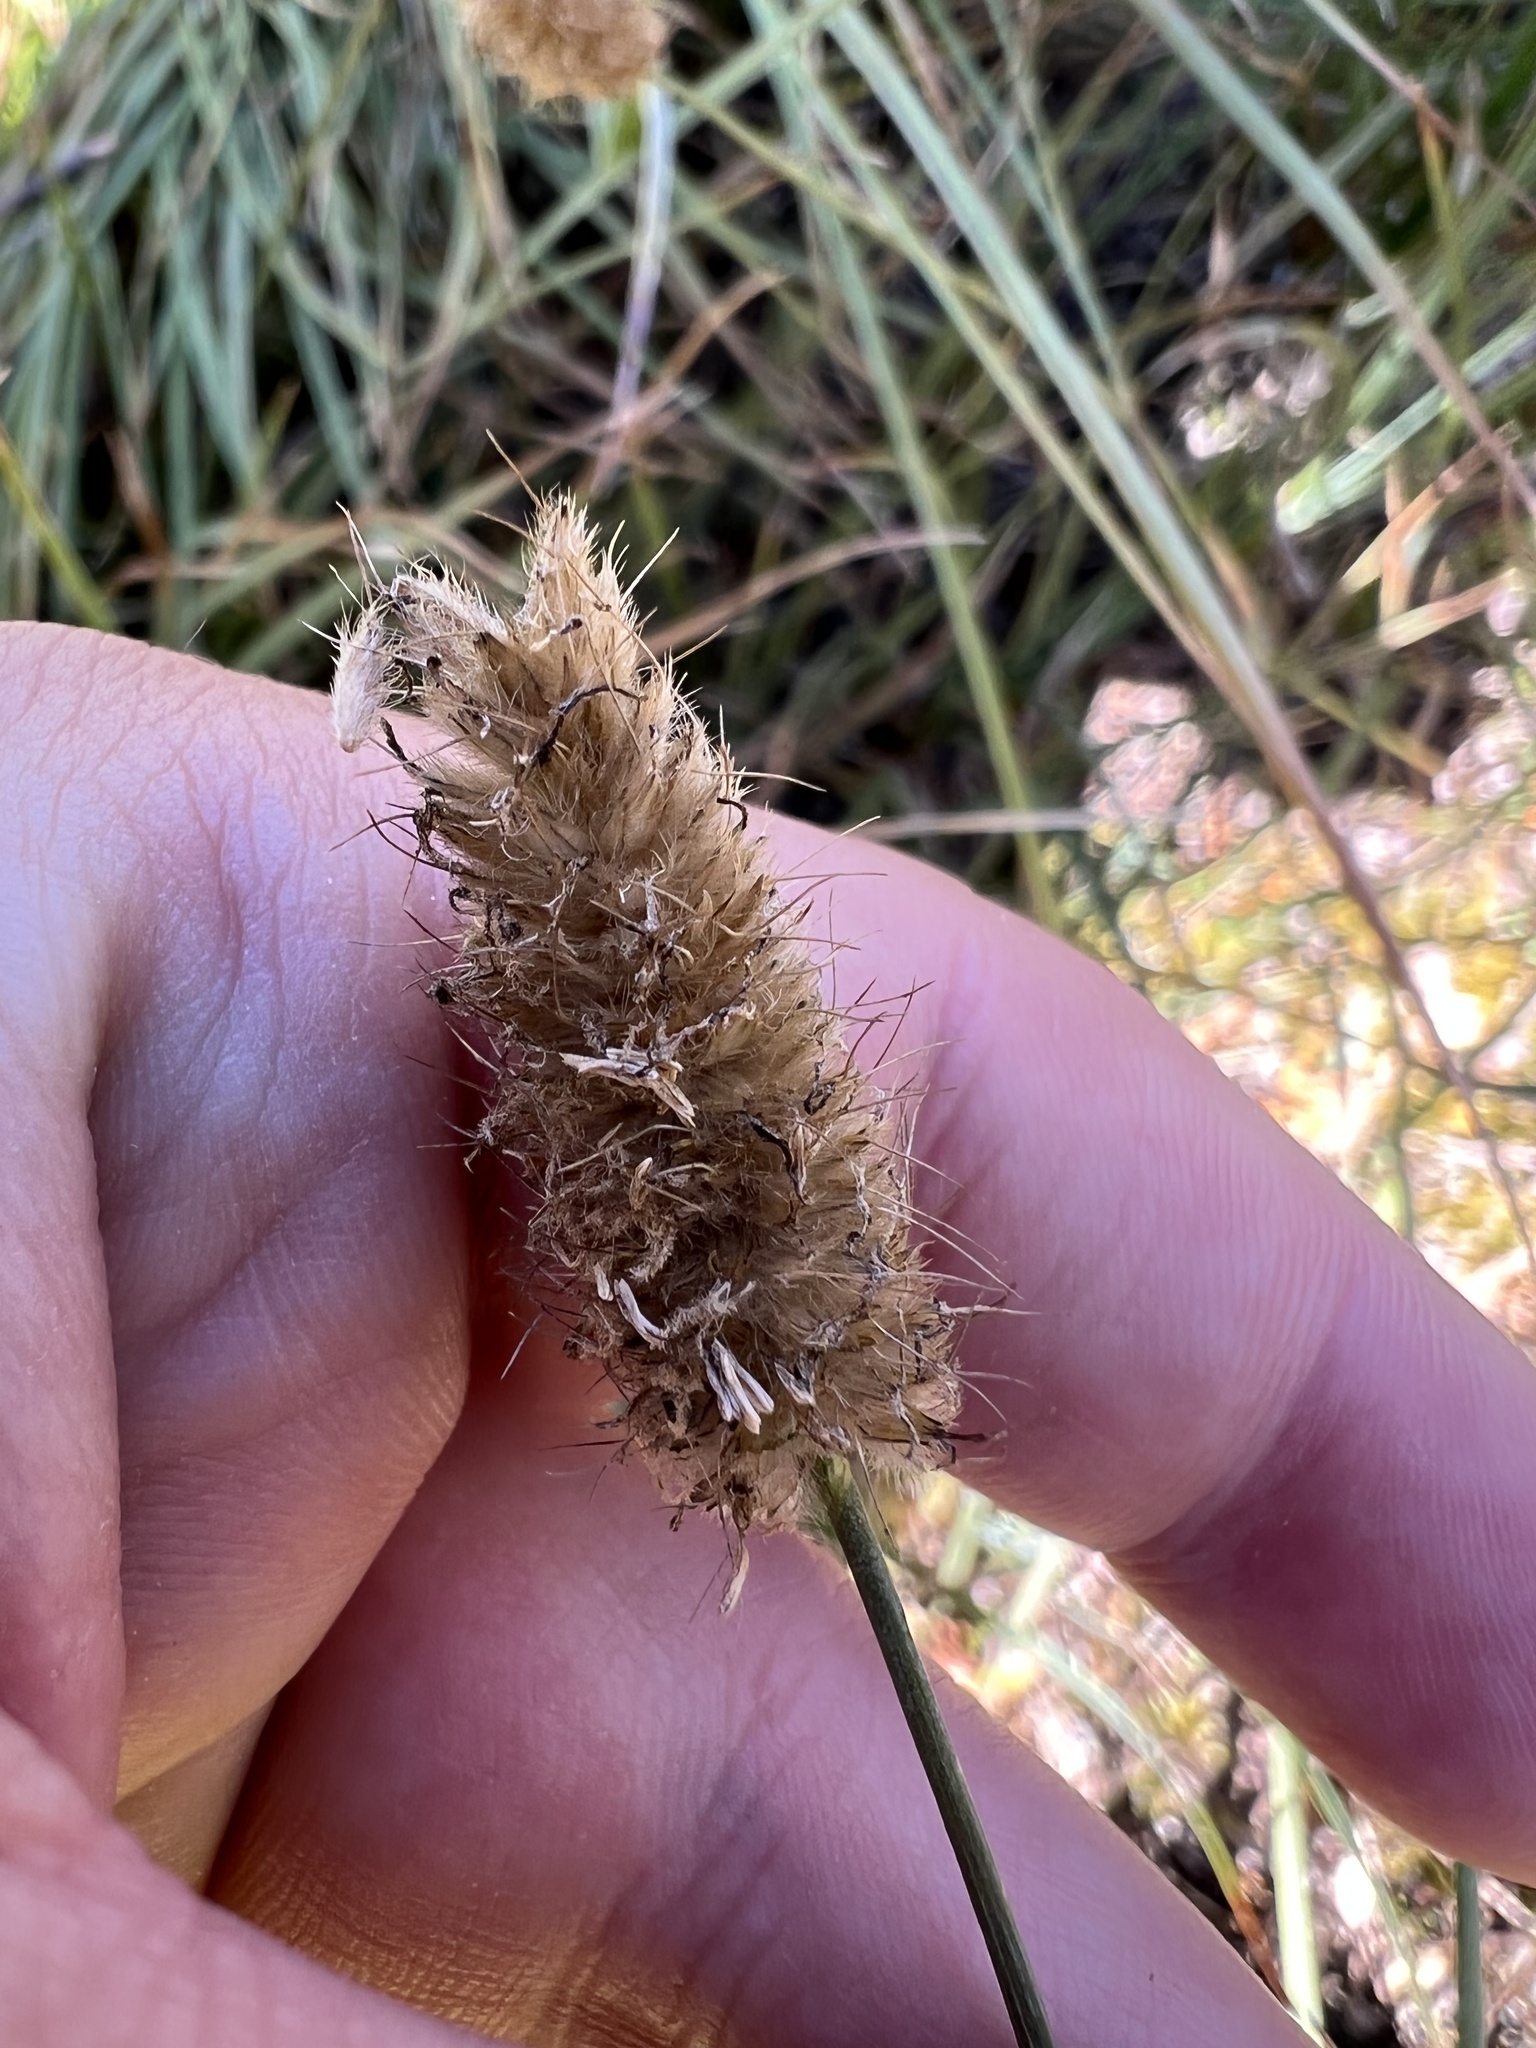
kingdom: Plantae
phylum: Tracheophyta
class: Liliopsida
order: Poales
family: Poaceae
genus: Alopecurus
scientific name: Alopecurus pratensis
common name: Meadow foxtail
